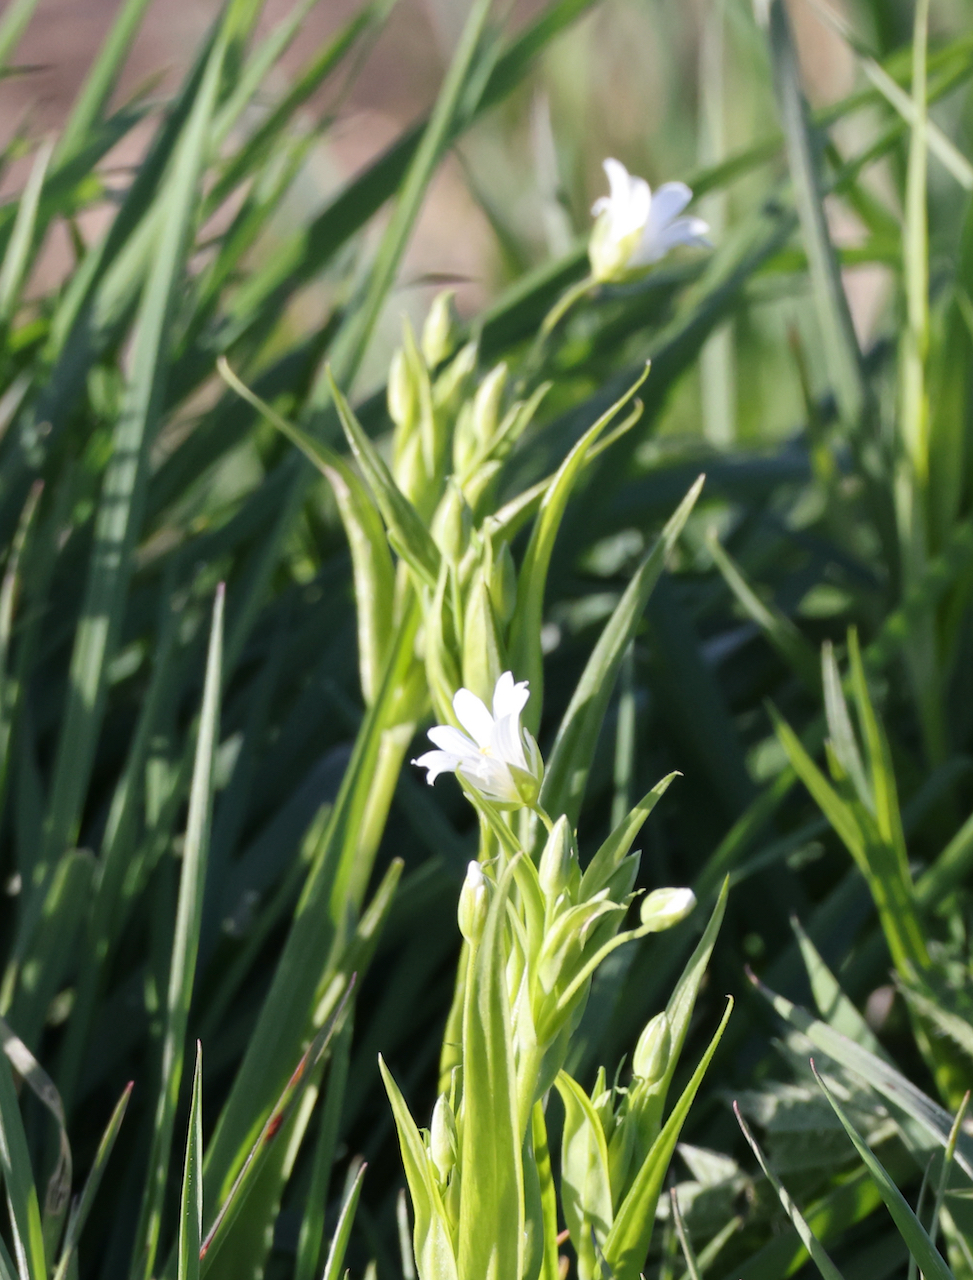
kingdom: Plantae
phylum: Tracheophyta
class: Magnoliopsida
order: Caryophyllales
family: Caryophyllaceae
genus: Rabelera
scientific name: Rabelera holostea
